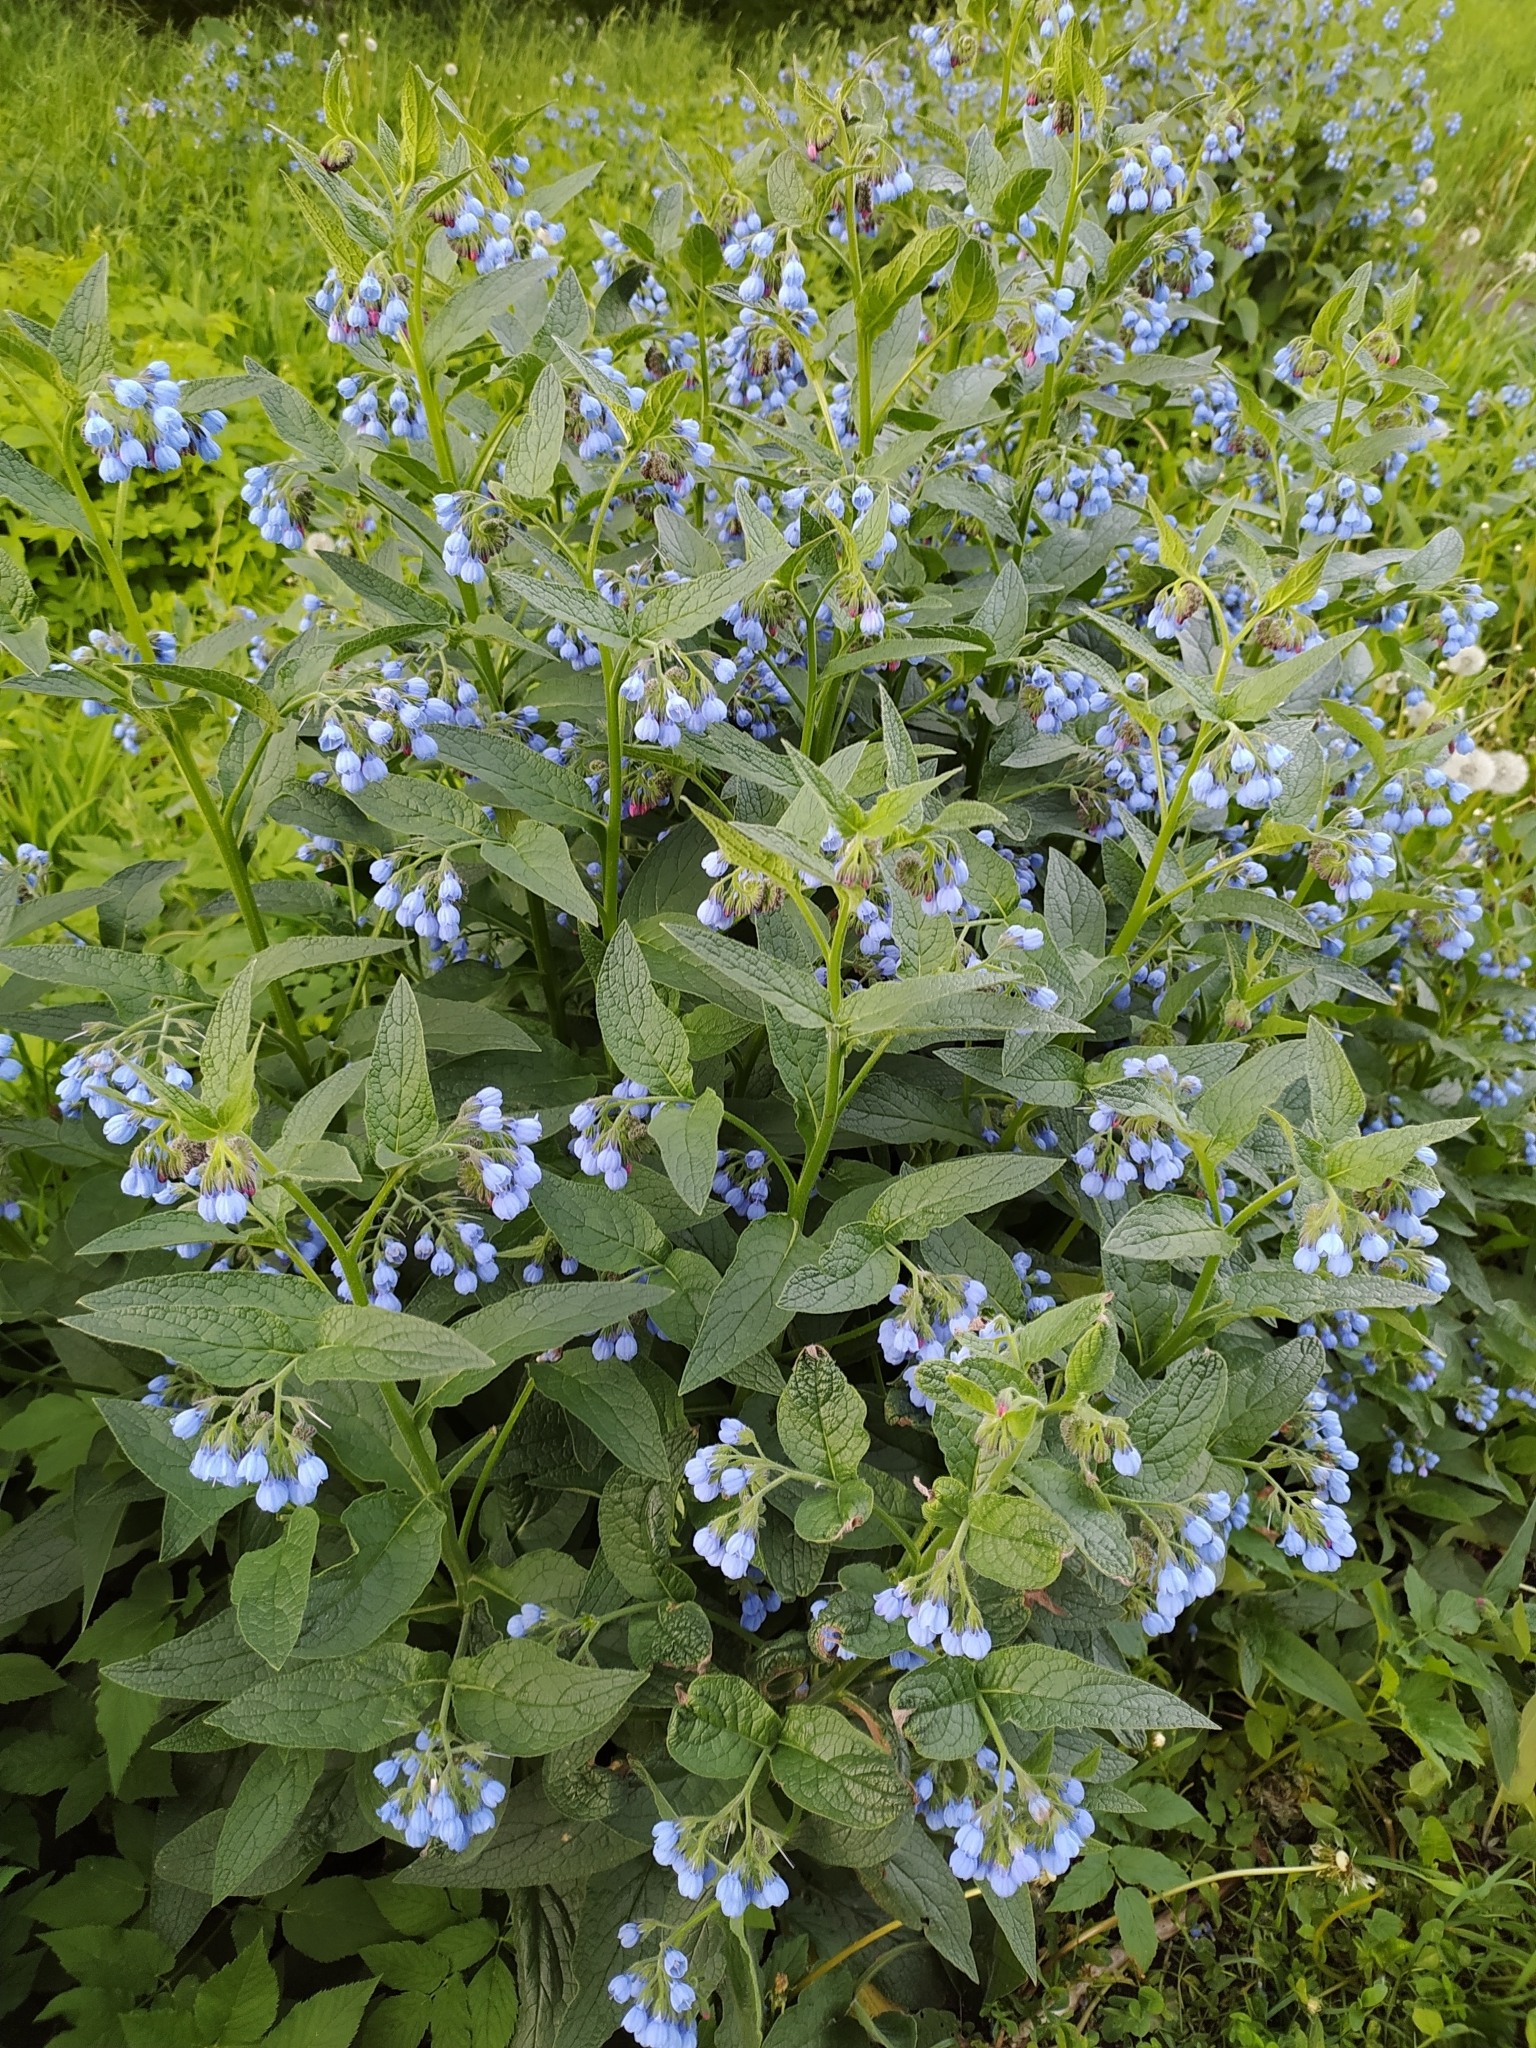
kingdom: Plantae
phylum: Tracheophyta
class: Magnoliopsida
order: Boraginales
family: Boraginaceae
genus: Symphytum
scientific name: Symphytum caucasicum
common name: Caucasian comfrey
